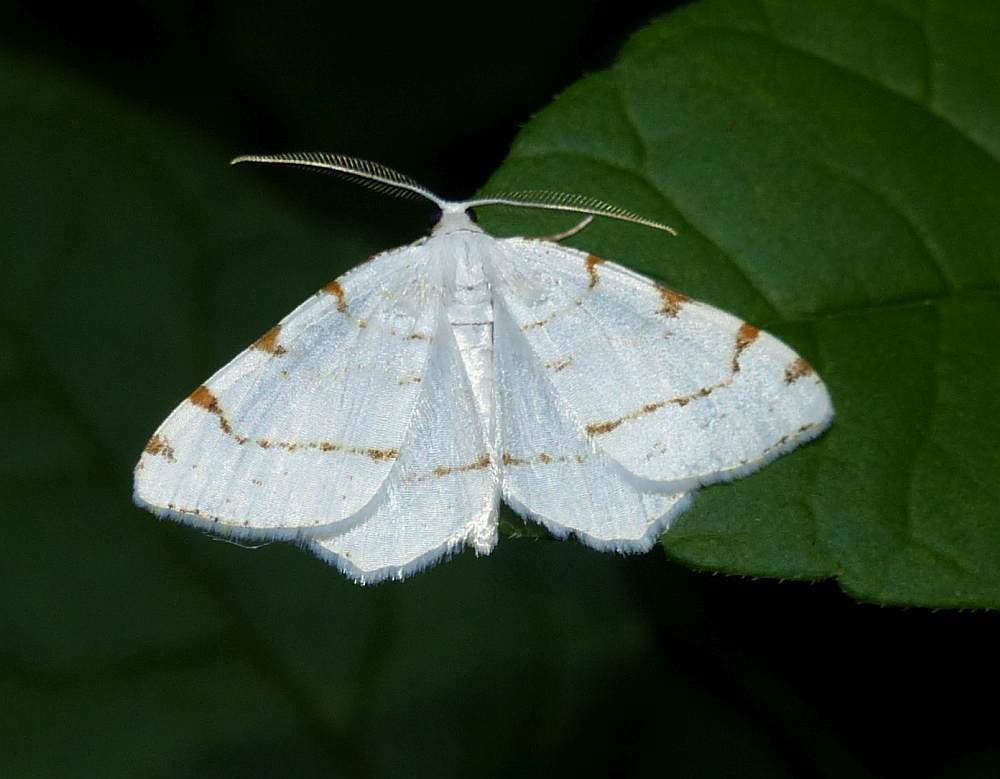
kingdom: Animalia
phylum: Arthropoda
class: Insecta
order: Lepidoptera
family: Geometridae
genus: Macaria
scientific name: Macaria pustularia
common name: Lesser maple spanworm moth
